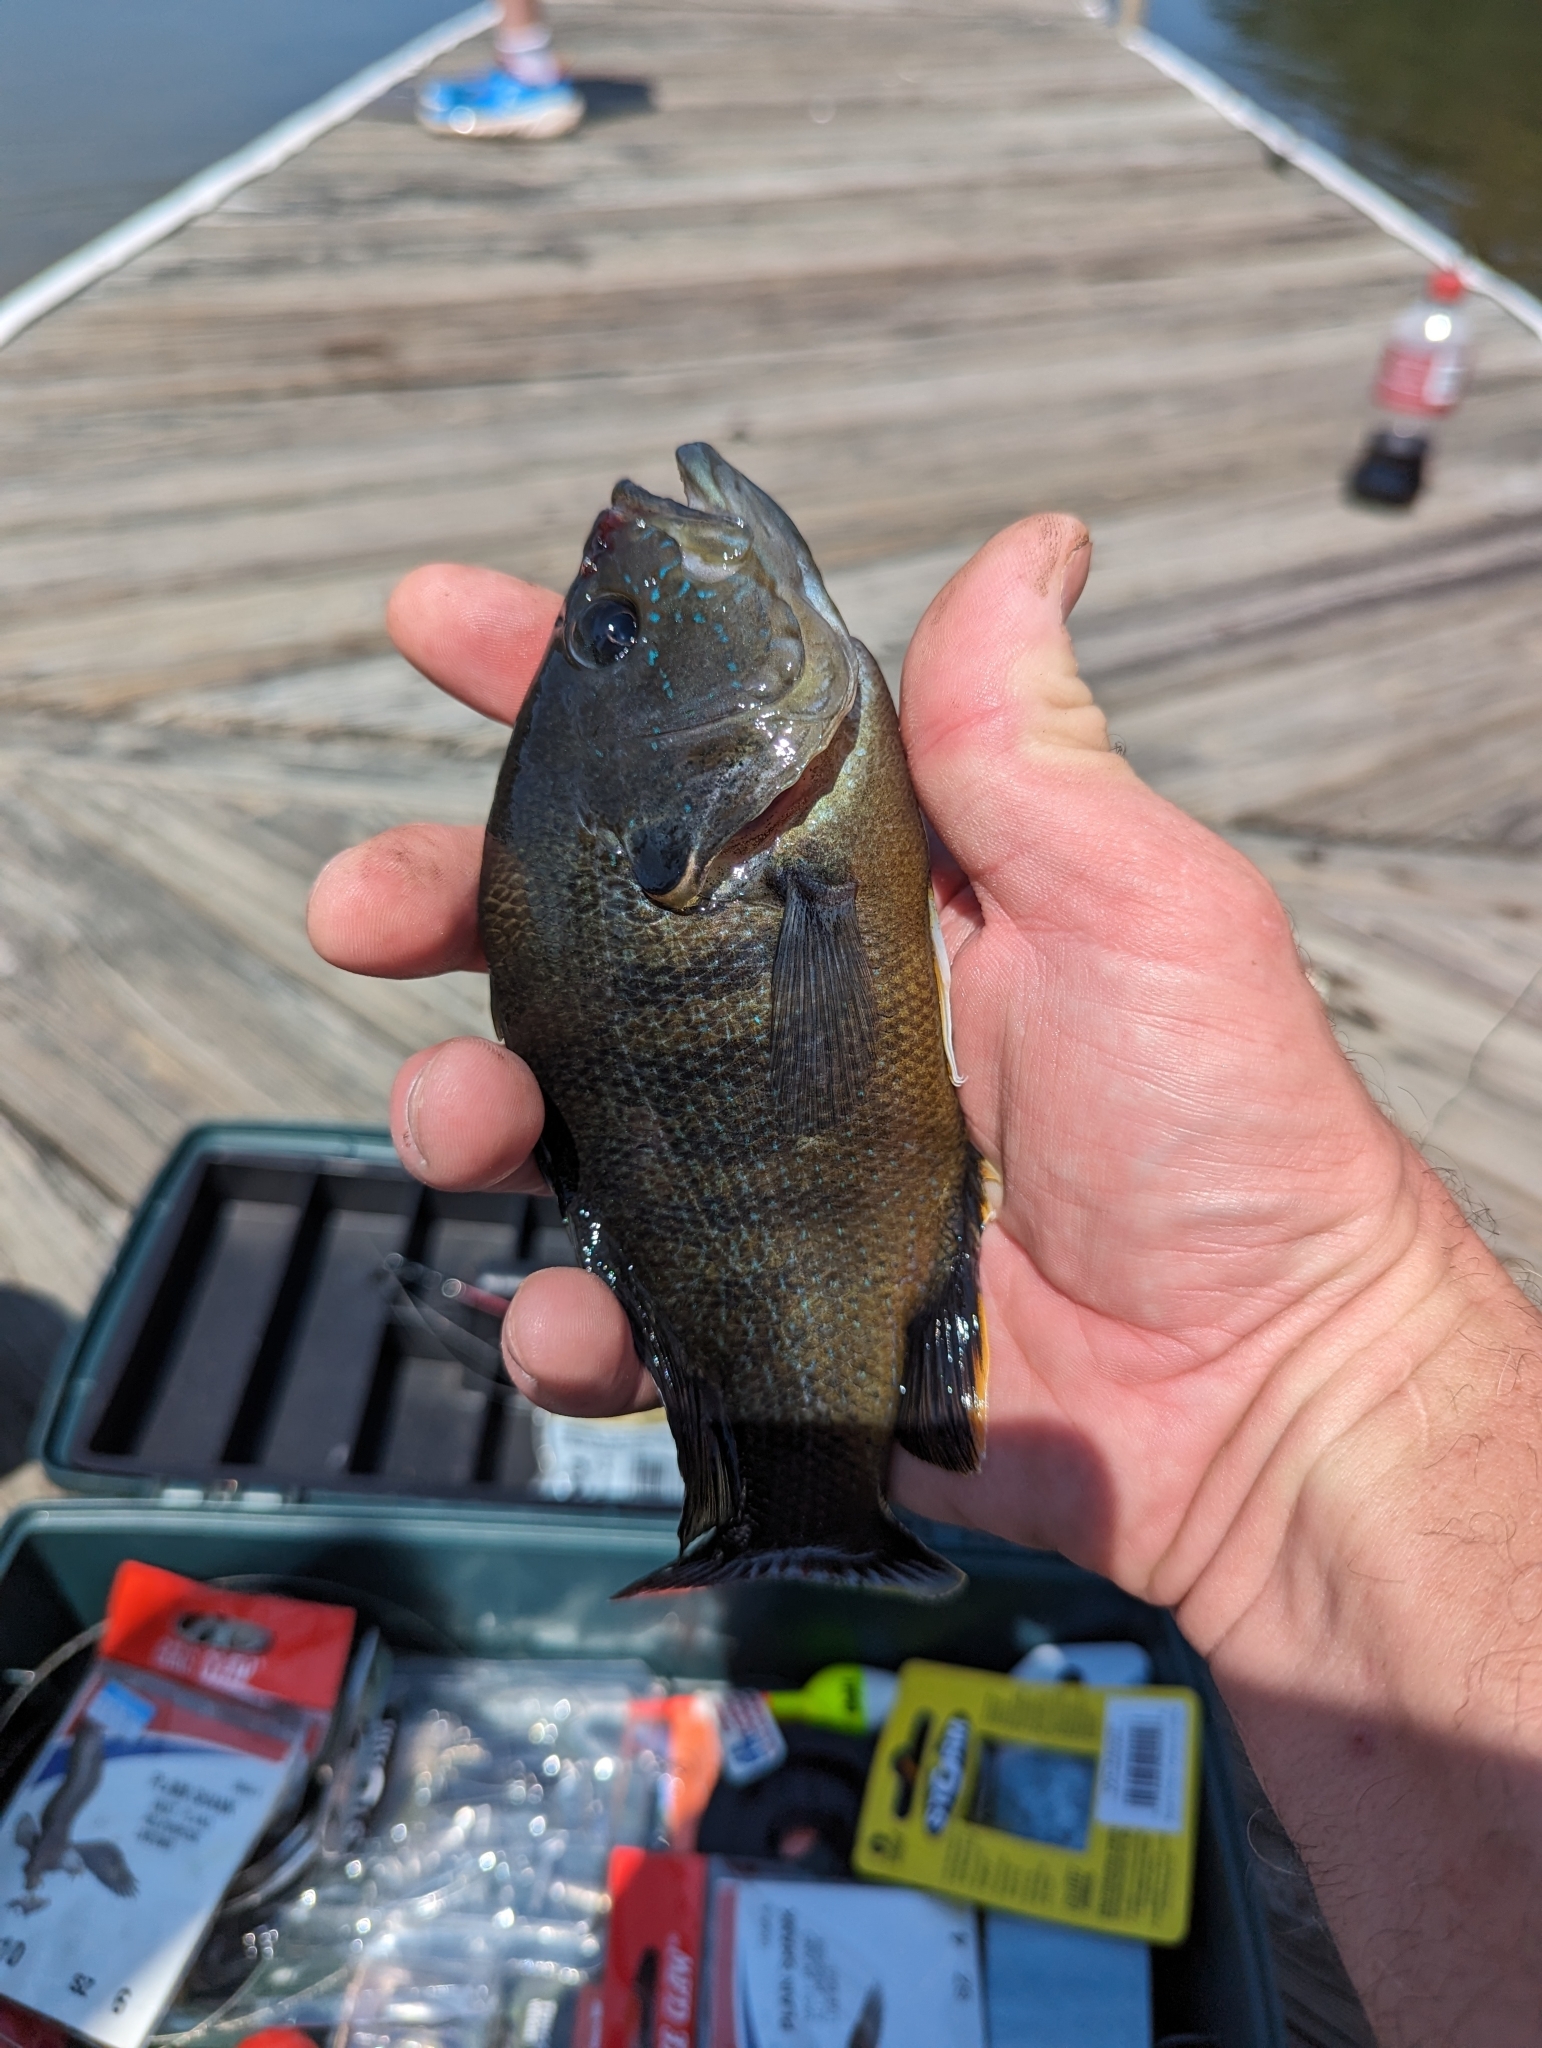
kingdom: Animalia
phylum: Chordata
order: Perciformes
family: Centrarchidae
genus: Lepomis
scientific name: Lepomis cyanellus
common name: Green sunfish
